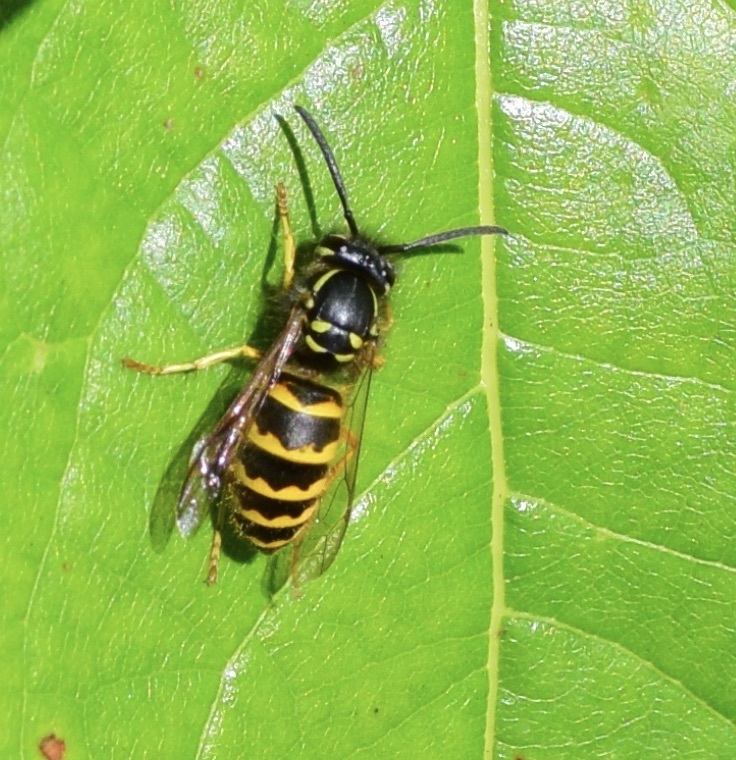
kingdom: Animalia
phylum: Arthropoda
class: Insecta
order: Hymenoptera
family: Vespidae
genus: Vespula
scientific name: Vespula alascensis
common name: Alaska yellowjacket
